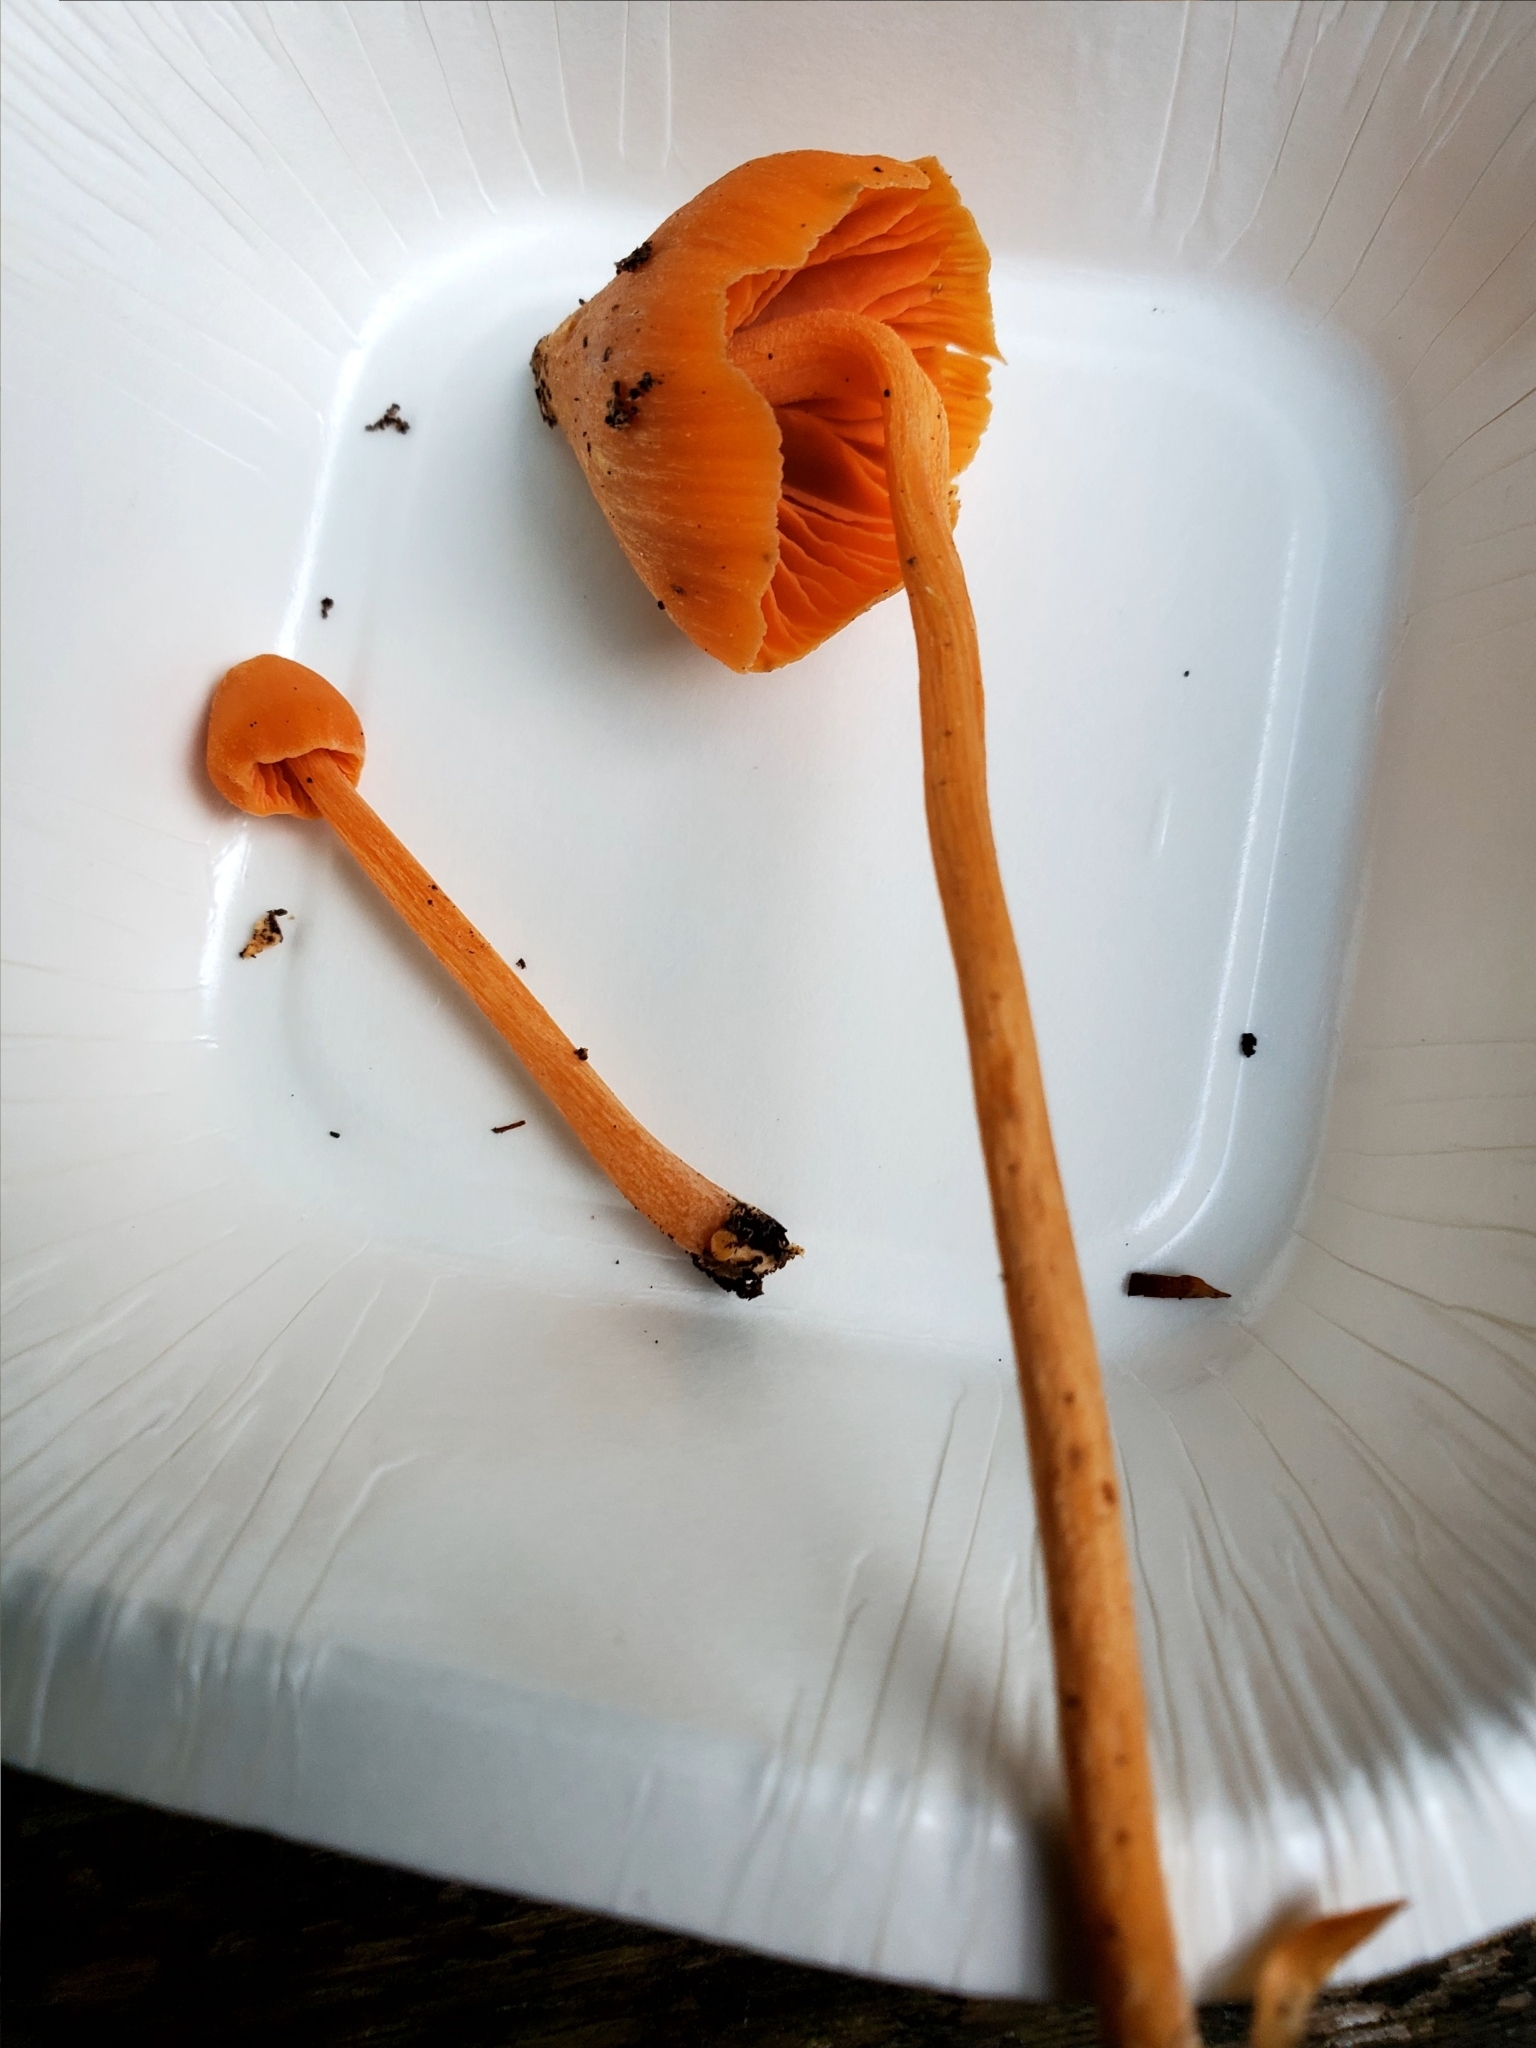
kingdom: Fungi
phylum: Basidiomycota
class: Agaricomycetes
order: Agaricales
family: Entolomataceae
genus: Entoloma
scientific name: Entoloma quadratum
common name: Salmon pinkgill
